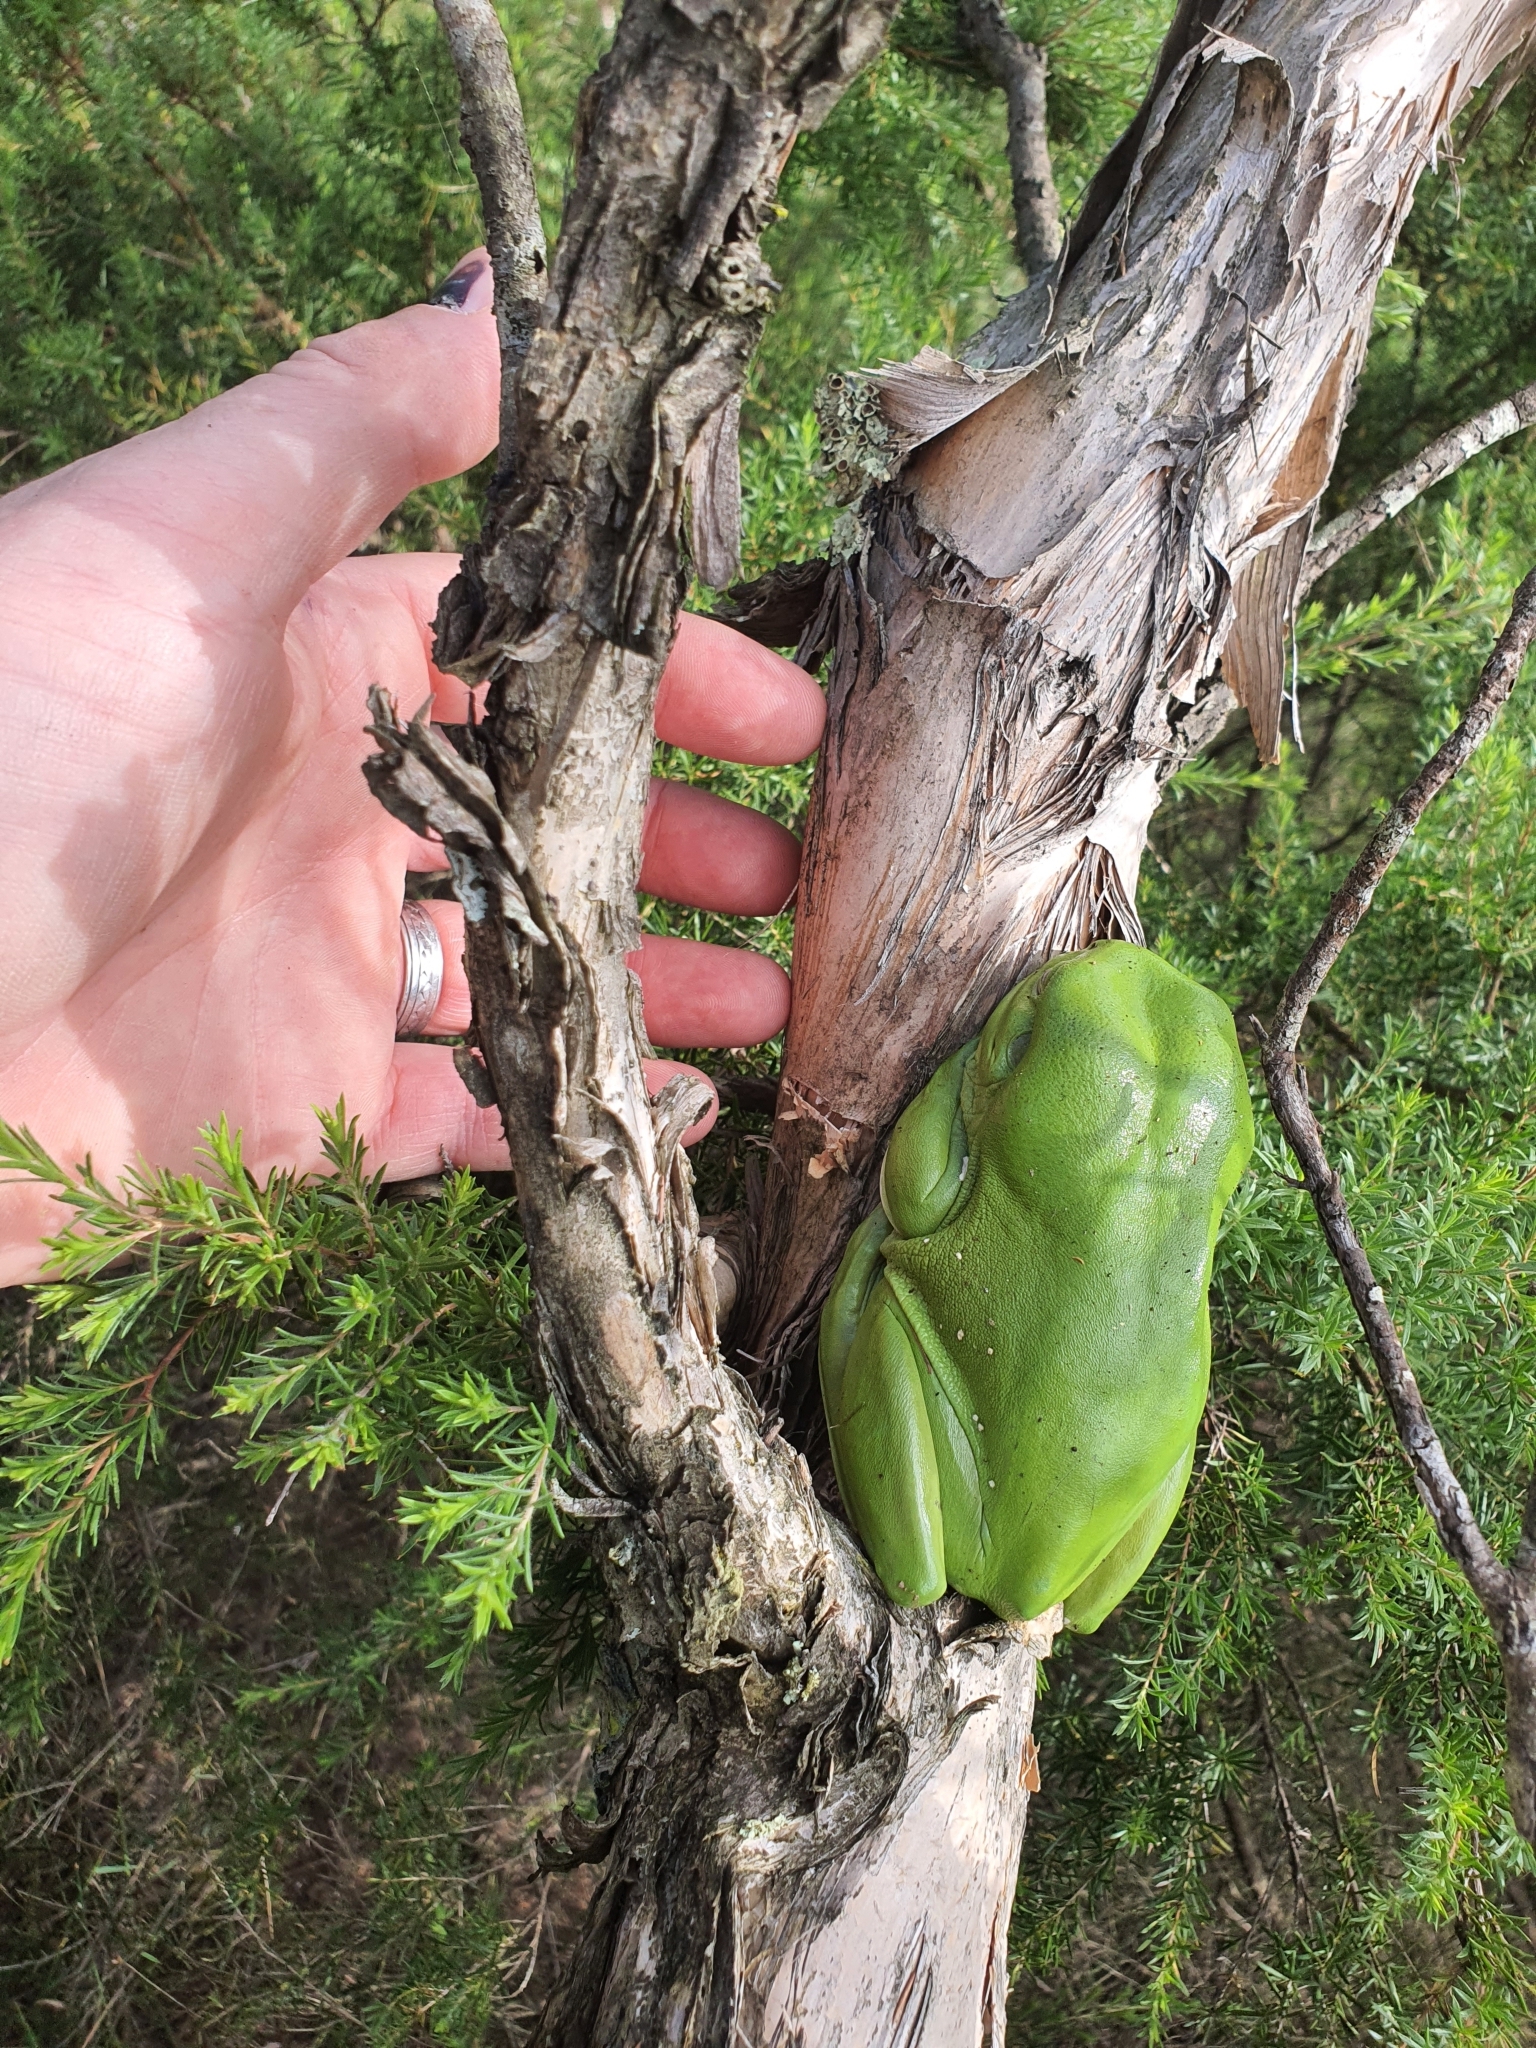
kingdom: Animalia
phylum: Chordata
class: Amphibia
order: Anura
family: Pelodryadidae
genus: Ranoidea
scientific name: Ranoidea caerulea
